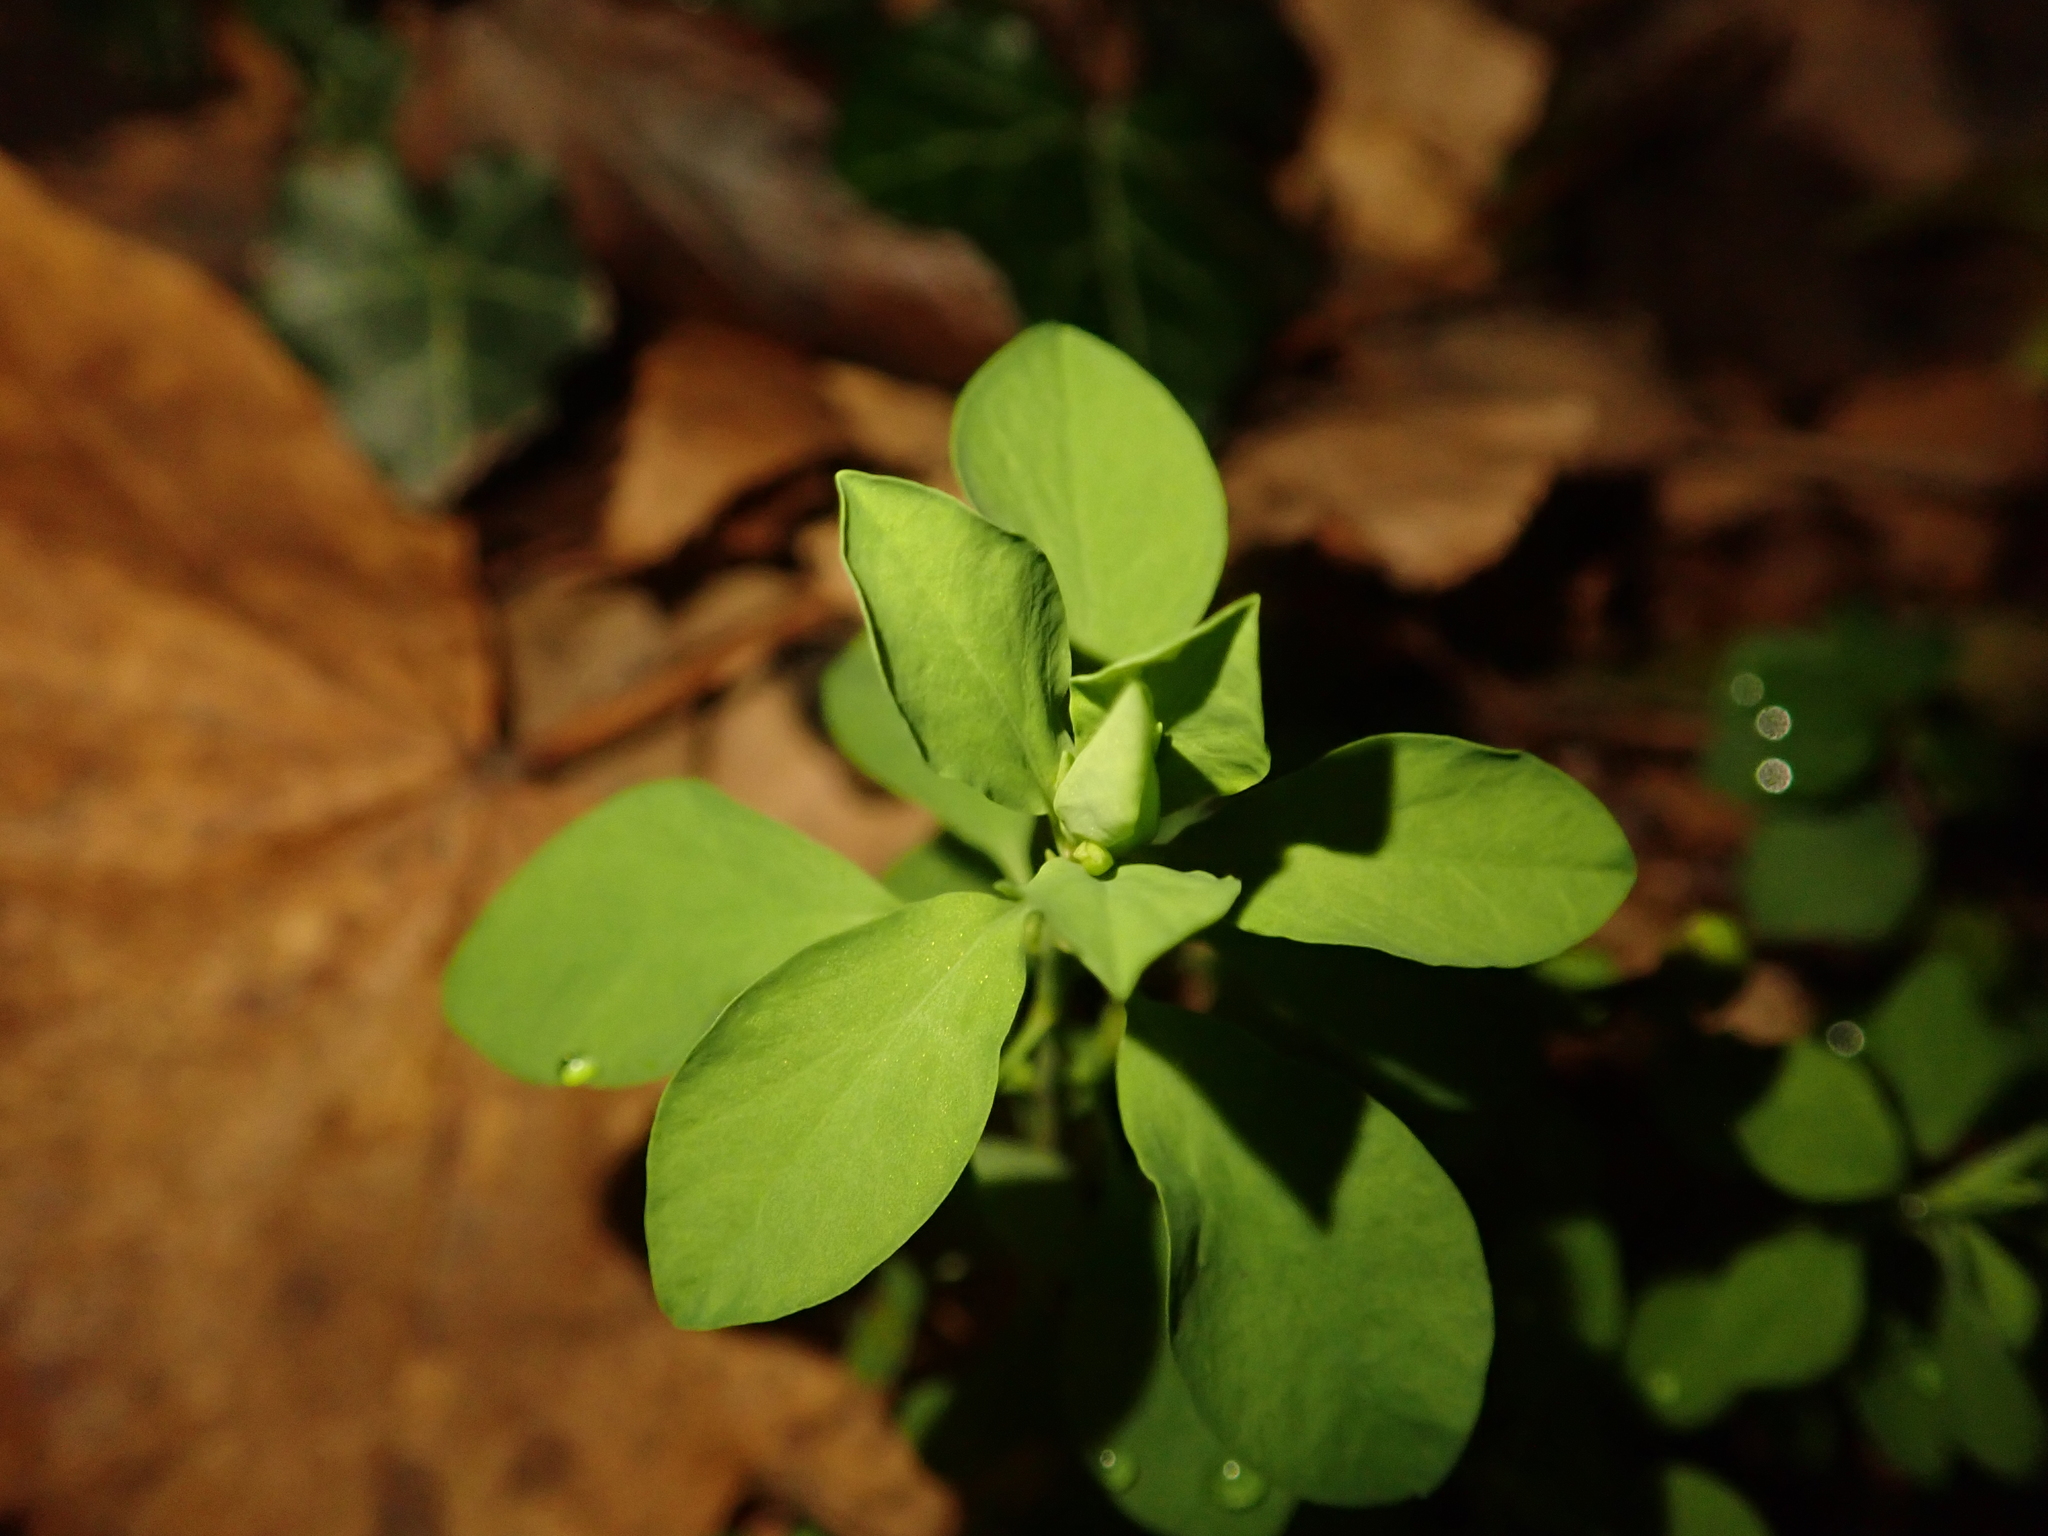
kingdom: Plantae
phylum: Tracheophyta
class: Magnoliopsida
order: Malpighiales
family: Euphorbiaceae
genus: Euphorbia
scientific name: Euphorbia peplus
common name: Petty spurge
